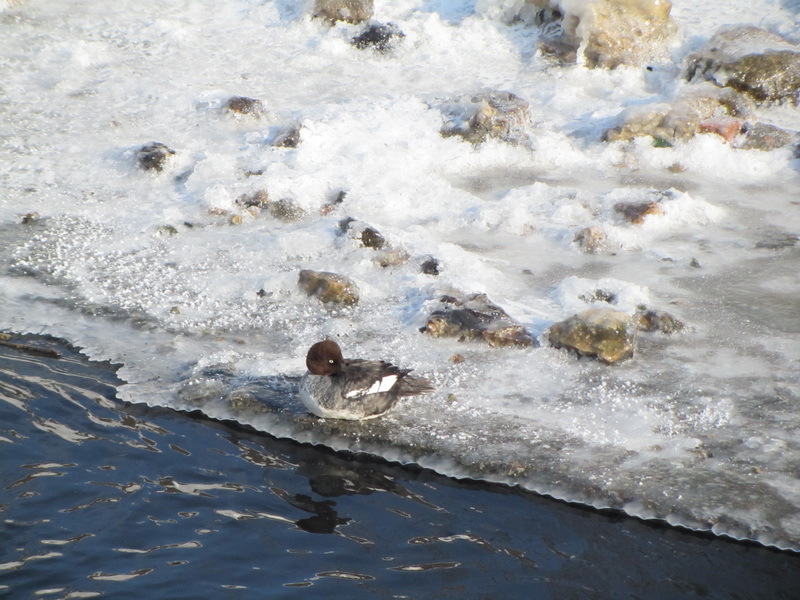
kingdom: Animalia
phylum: Chordata
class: Aves
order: Anseriformes
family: Anatidae
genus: Bucephala
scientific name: Bucephala clangula
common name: Common goldeneye
